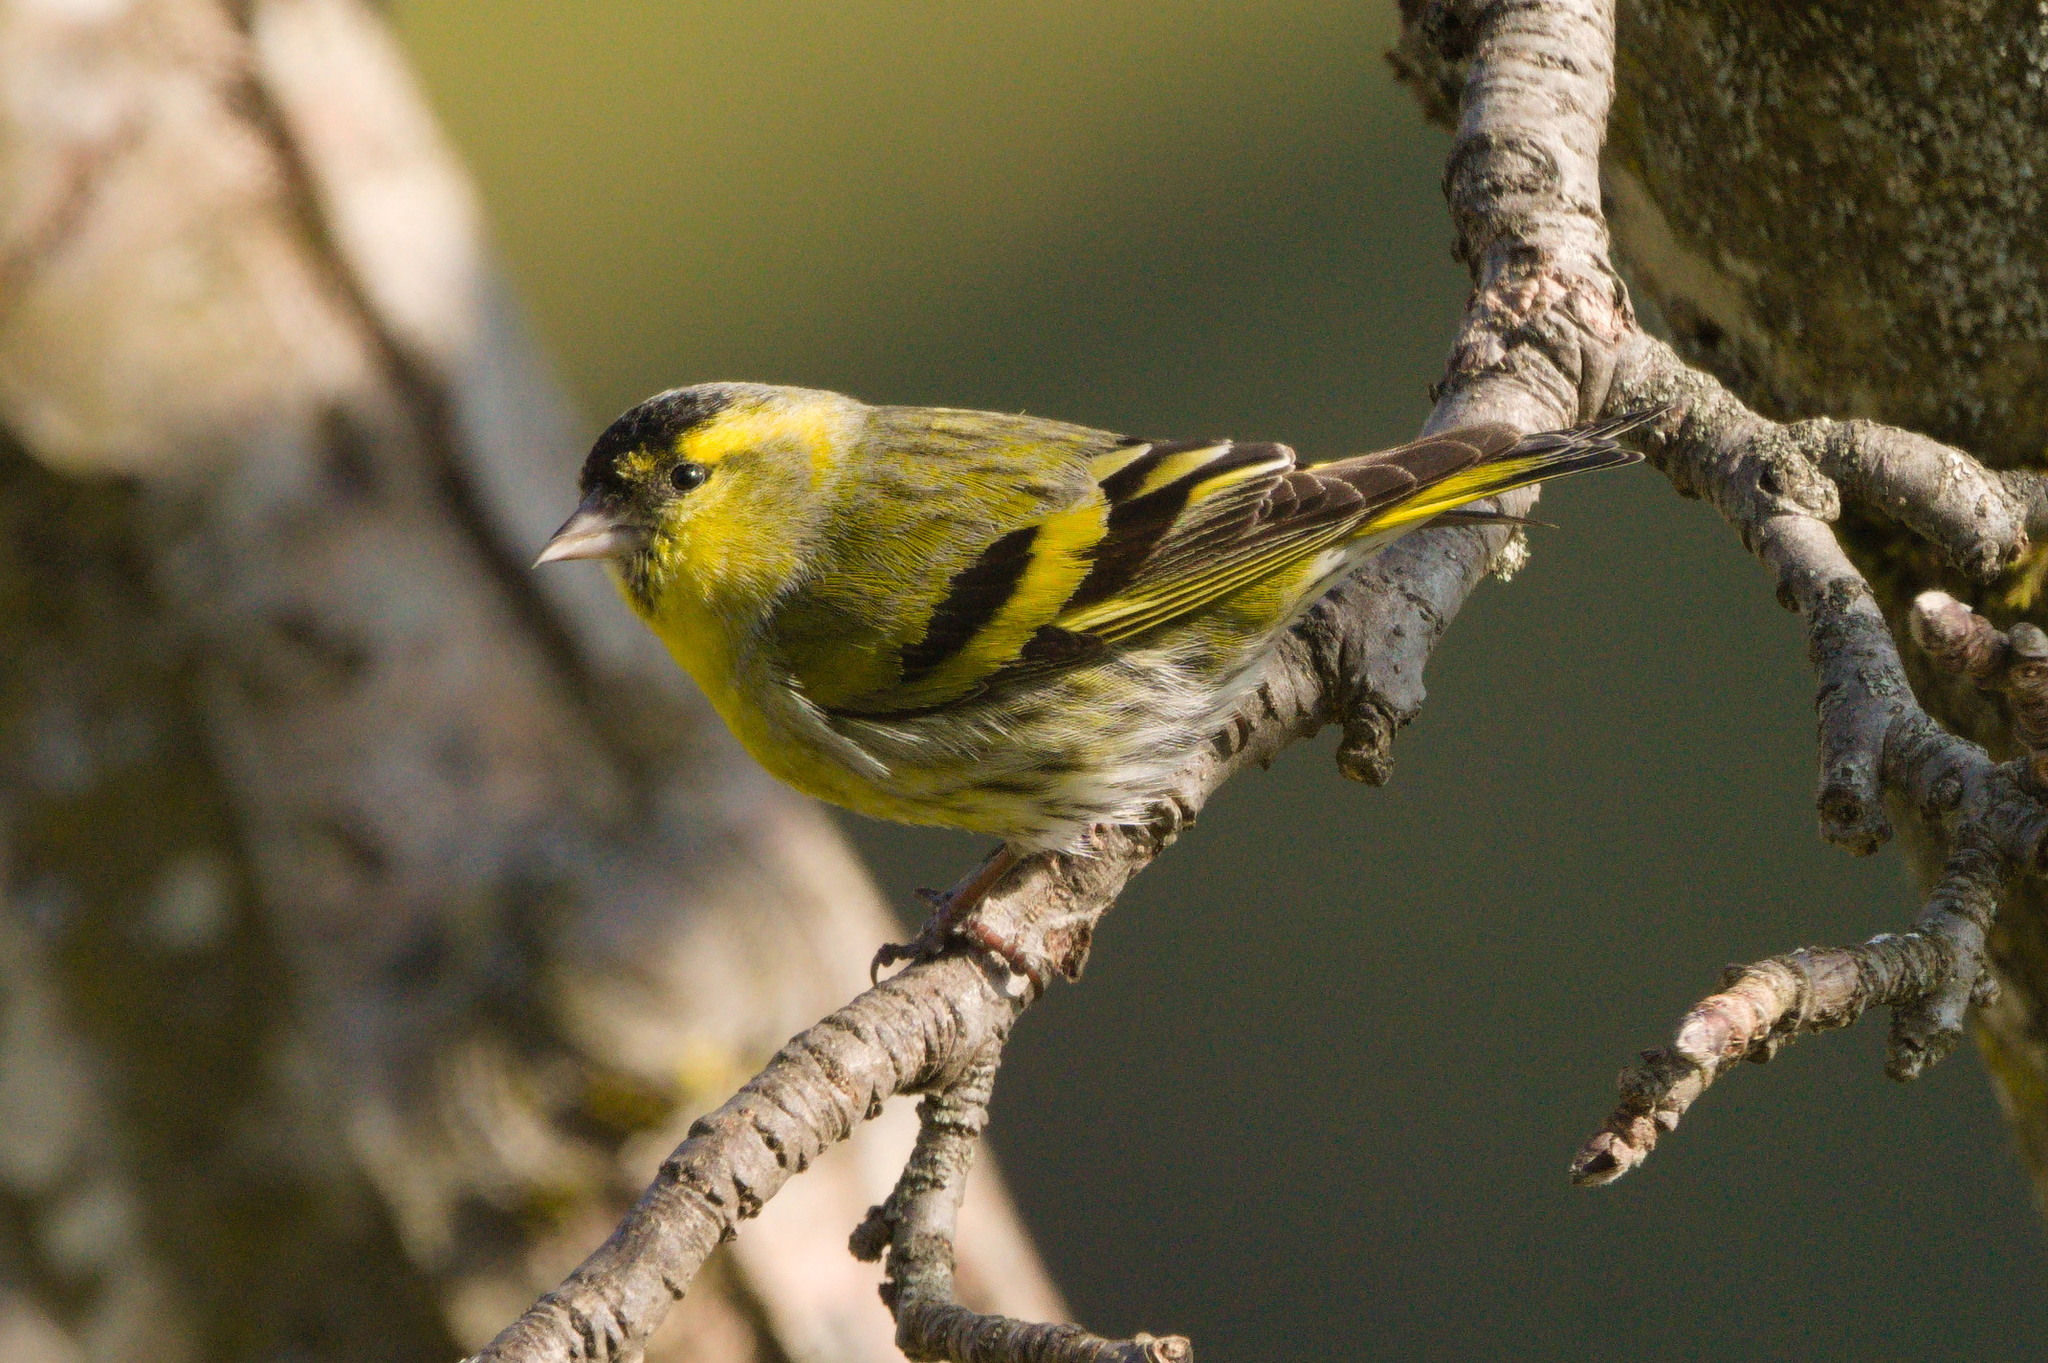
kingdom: Animalia
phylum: Chordata
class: Aves
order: Passeriformes
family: Fringillidae
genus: Spinus
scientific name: Spinus spinus
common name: Eurasian siskin
